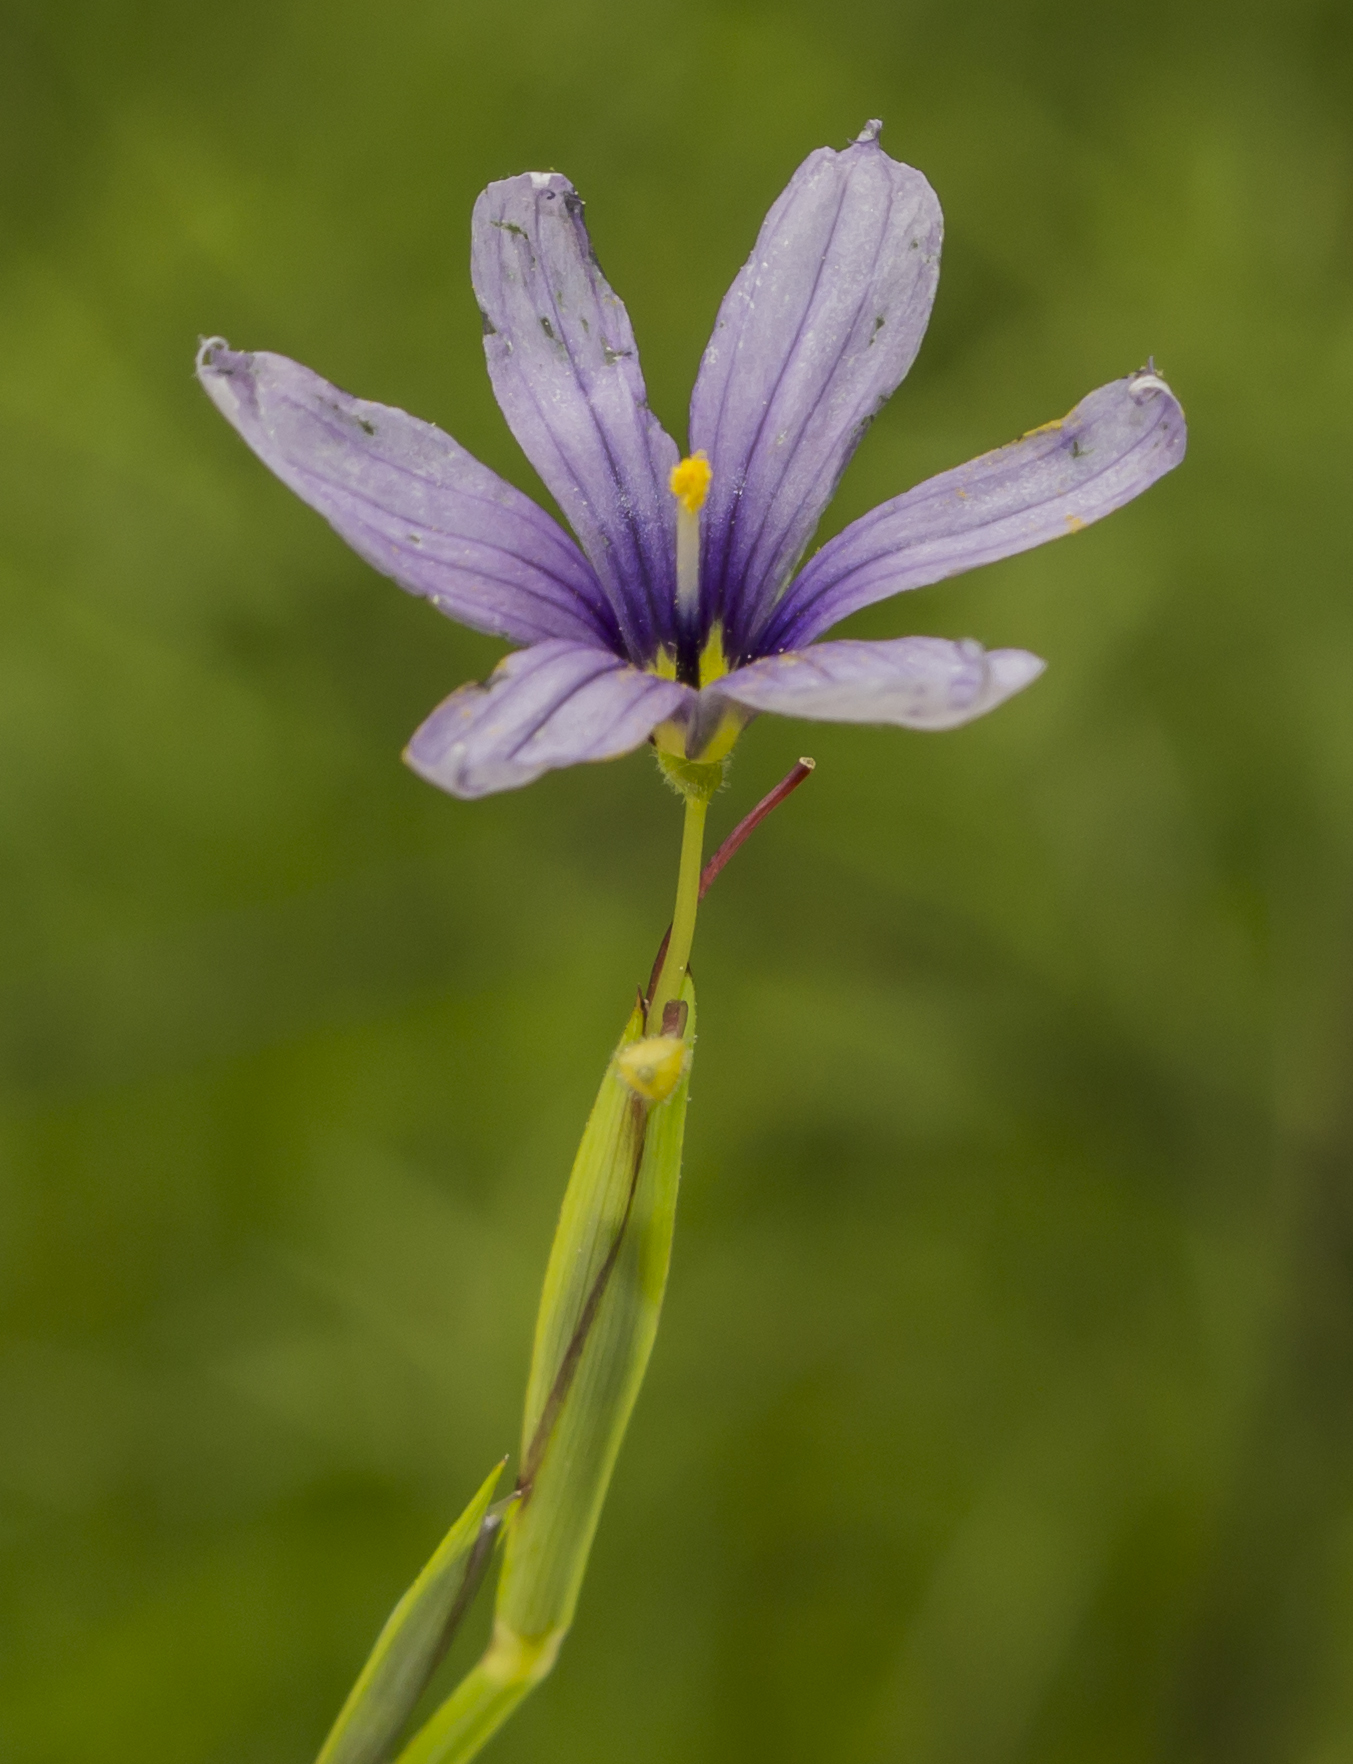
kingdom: Plantae
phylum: Tracheophyta
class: Liliopsida
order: Asparagales
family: Iridaceae
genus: Sisyrinchium
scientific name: Sisyrinchium montanum
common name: American blue-eyed-grass
